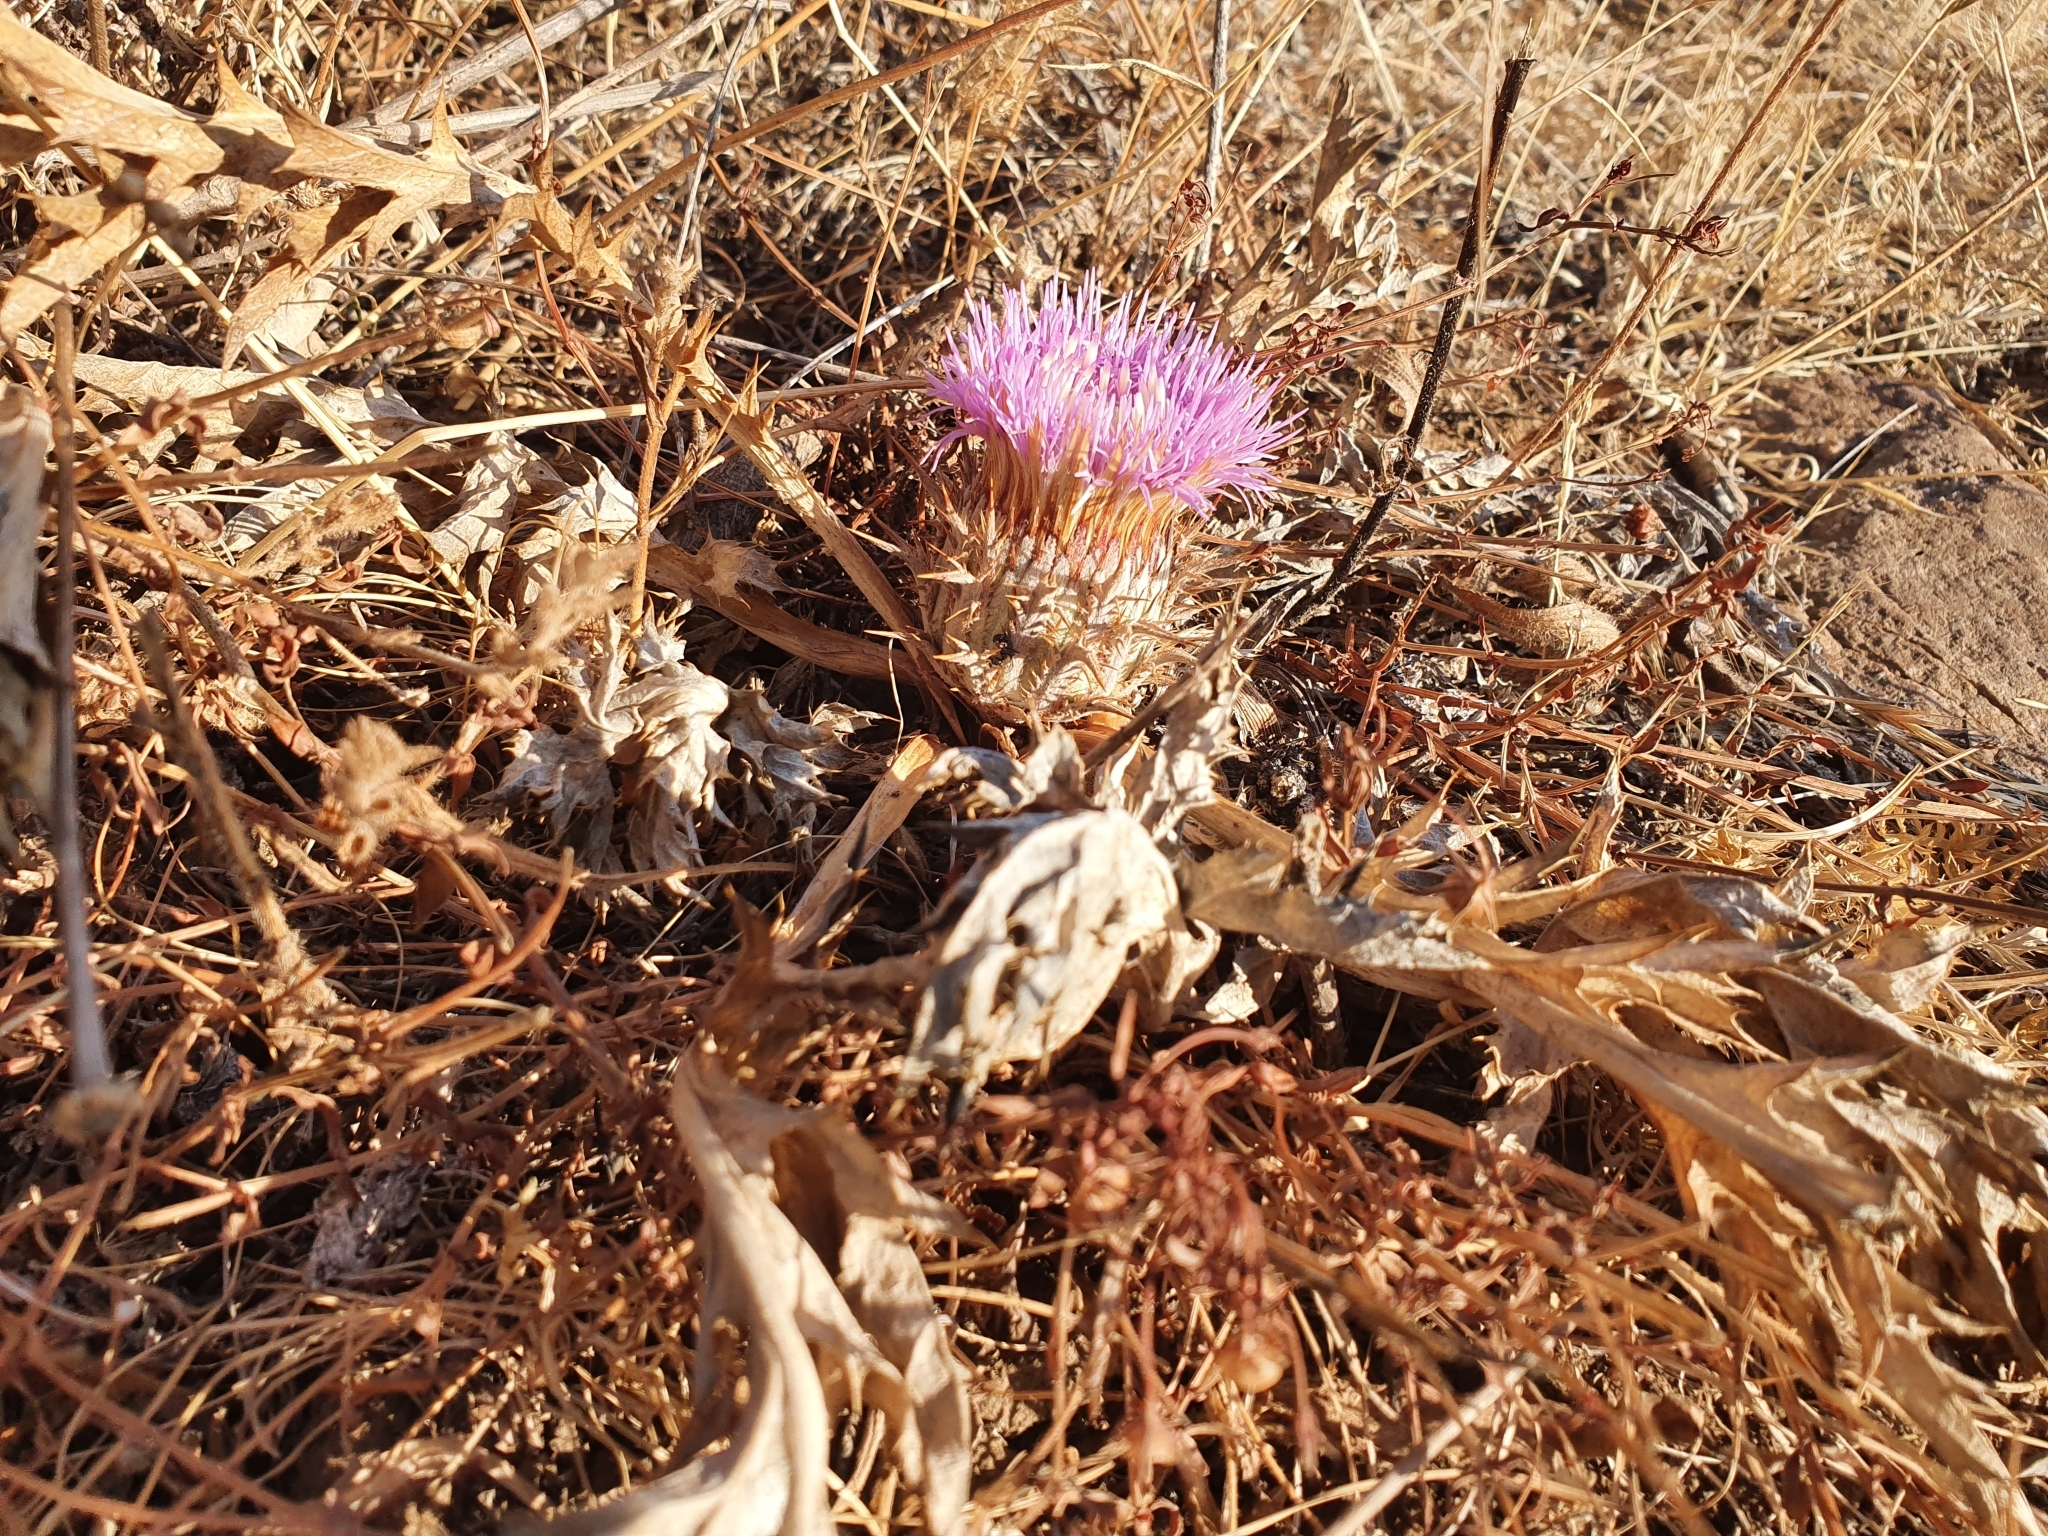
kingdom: Plantae
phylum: Tracheophyta
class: Magnoliopsida
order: Asterales
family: Asteraceae
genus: Chamaeleon
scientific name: Chamaeleon gummifer
